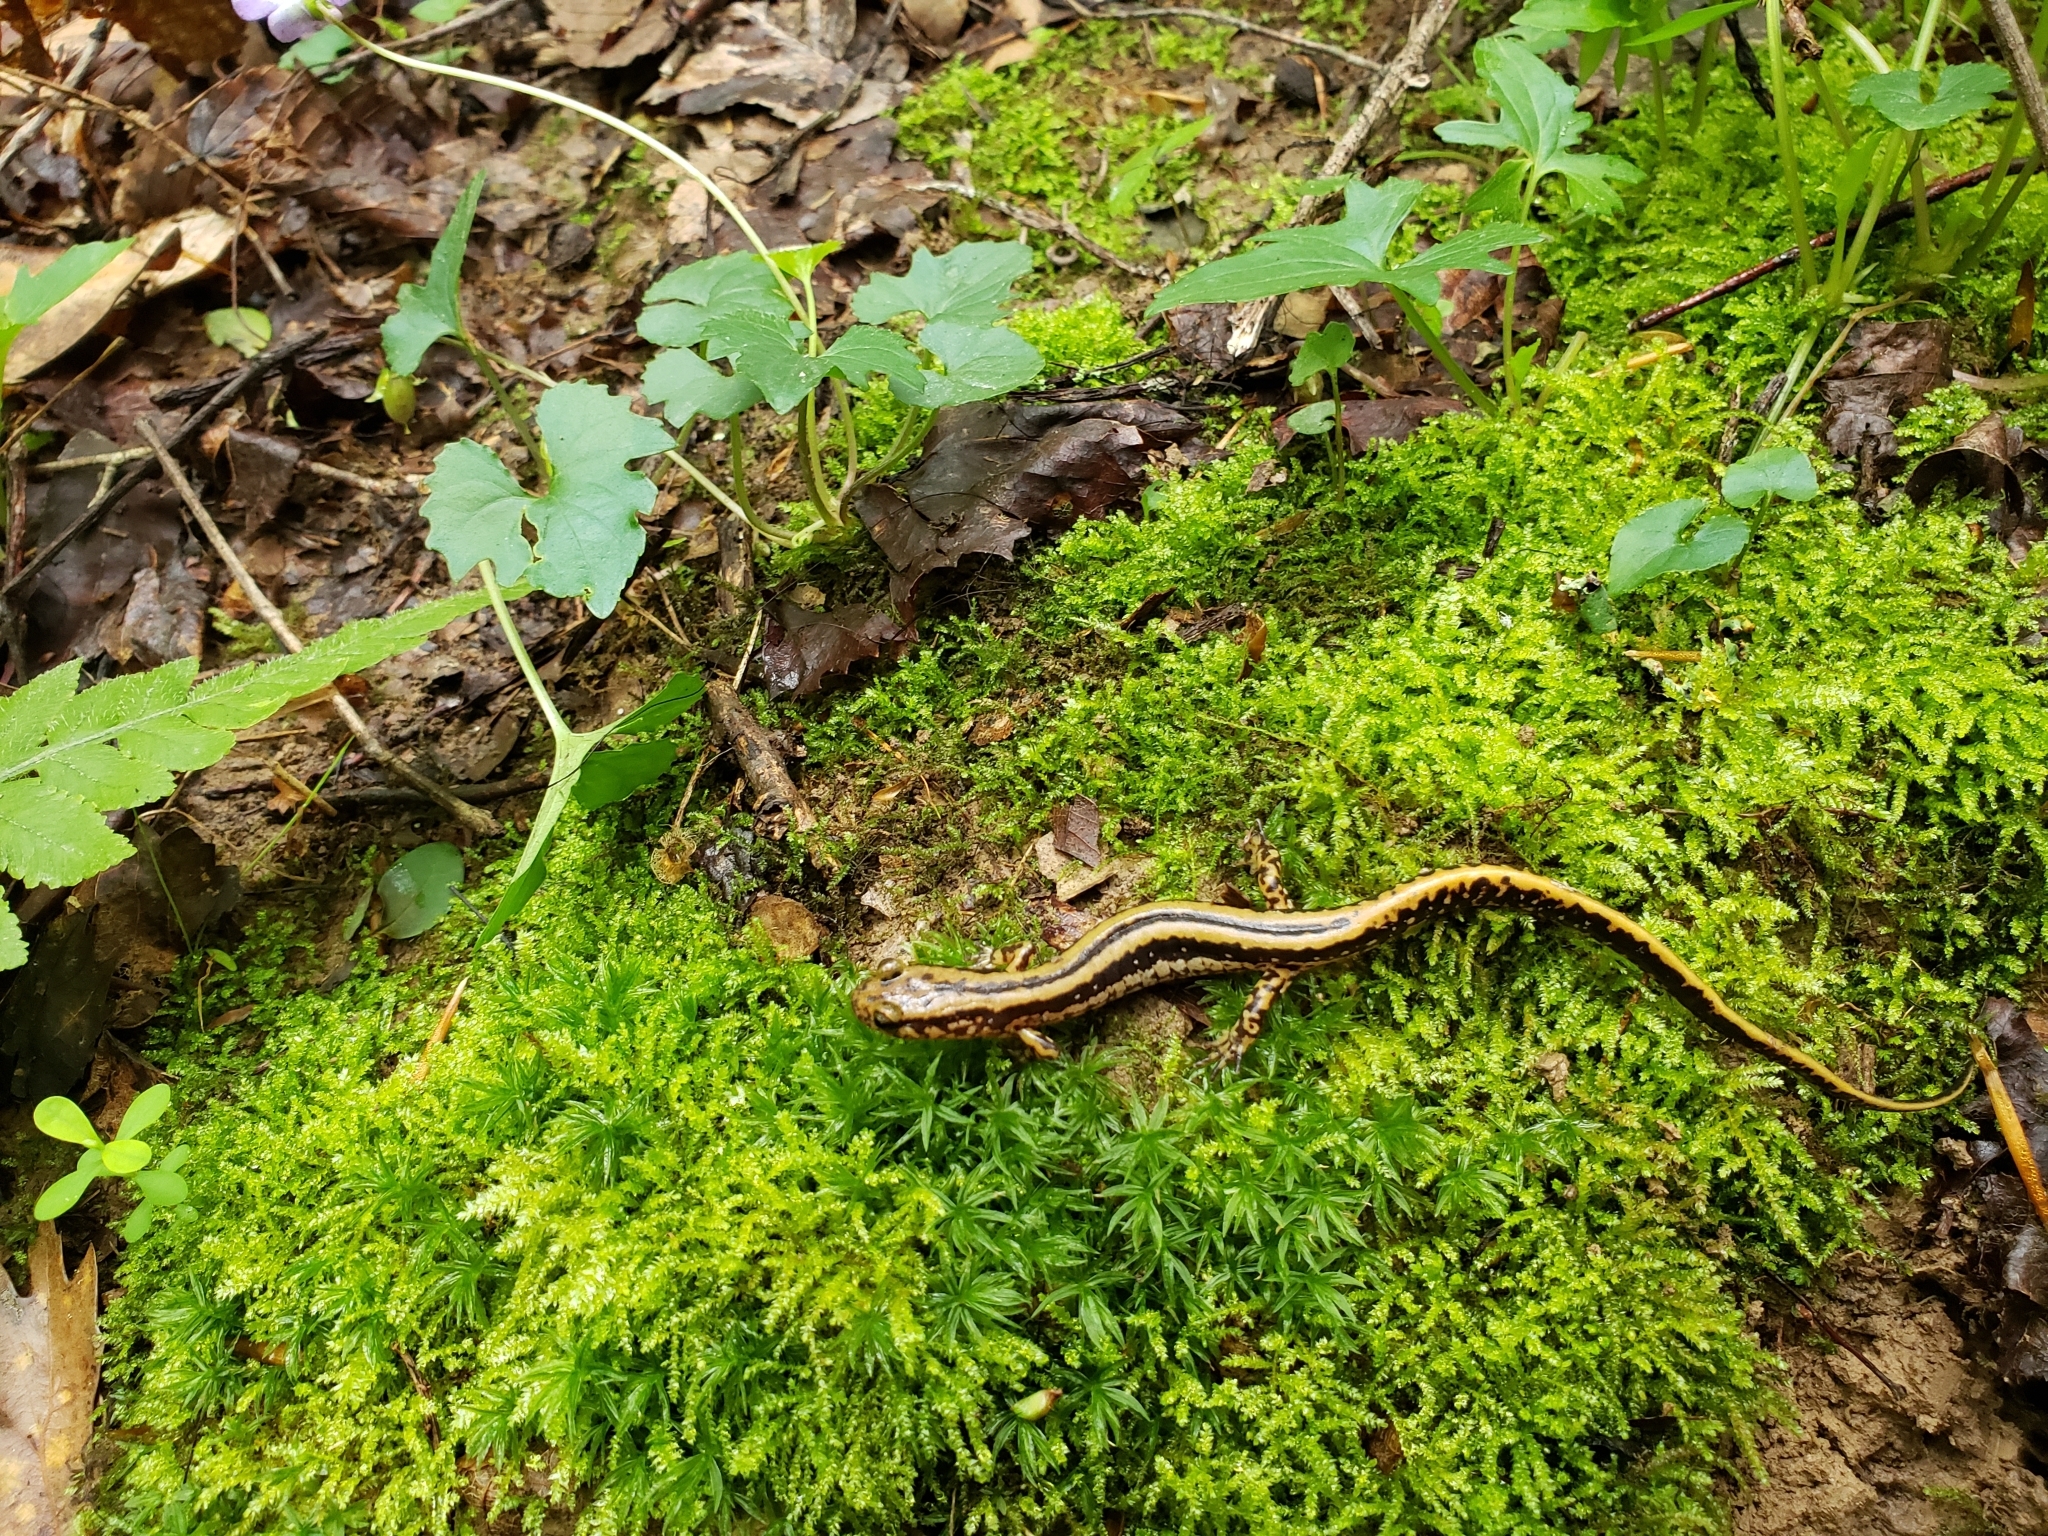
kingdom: Animalia
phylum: Chordata
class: Amphibia
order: Caudata
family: Plethodontidae
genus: Eurycea
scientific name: Eurycea guttolineata
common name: Three-lined salamander
